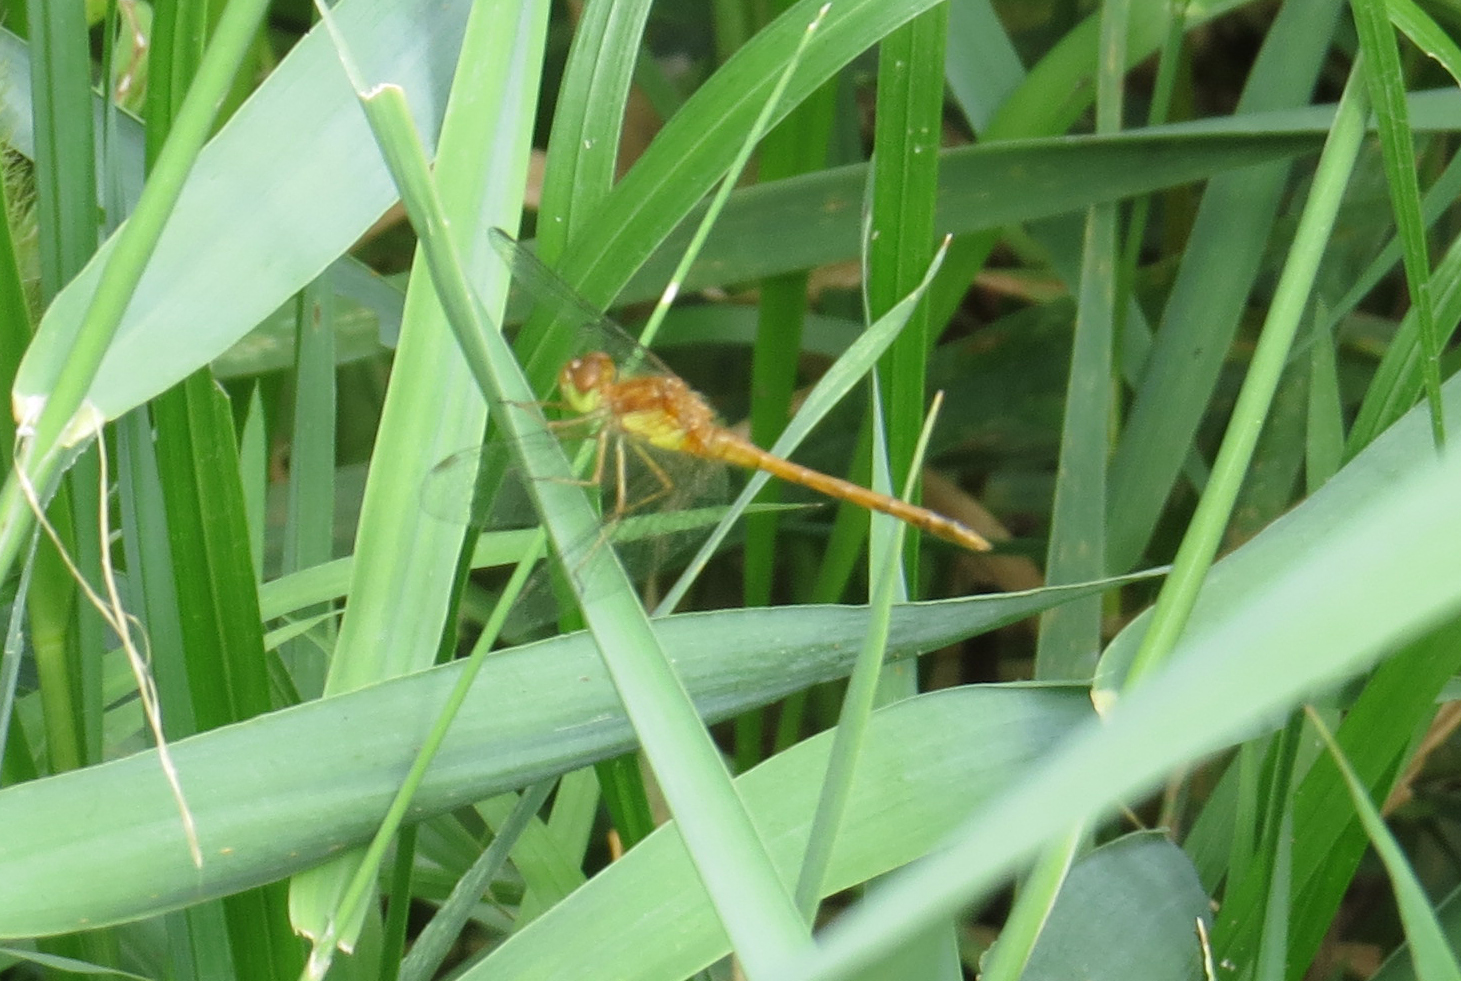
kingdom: Animalia
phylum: Arthropoda
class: Insecta
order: Odonata
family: Libellulidae
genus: Sympetrum
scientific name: Sympetrum vicinum
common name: Autumn meadowhawk
